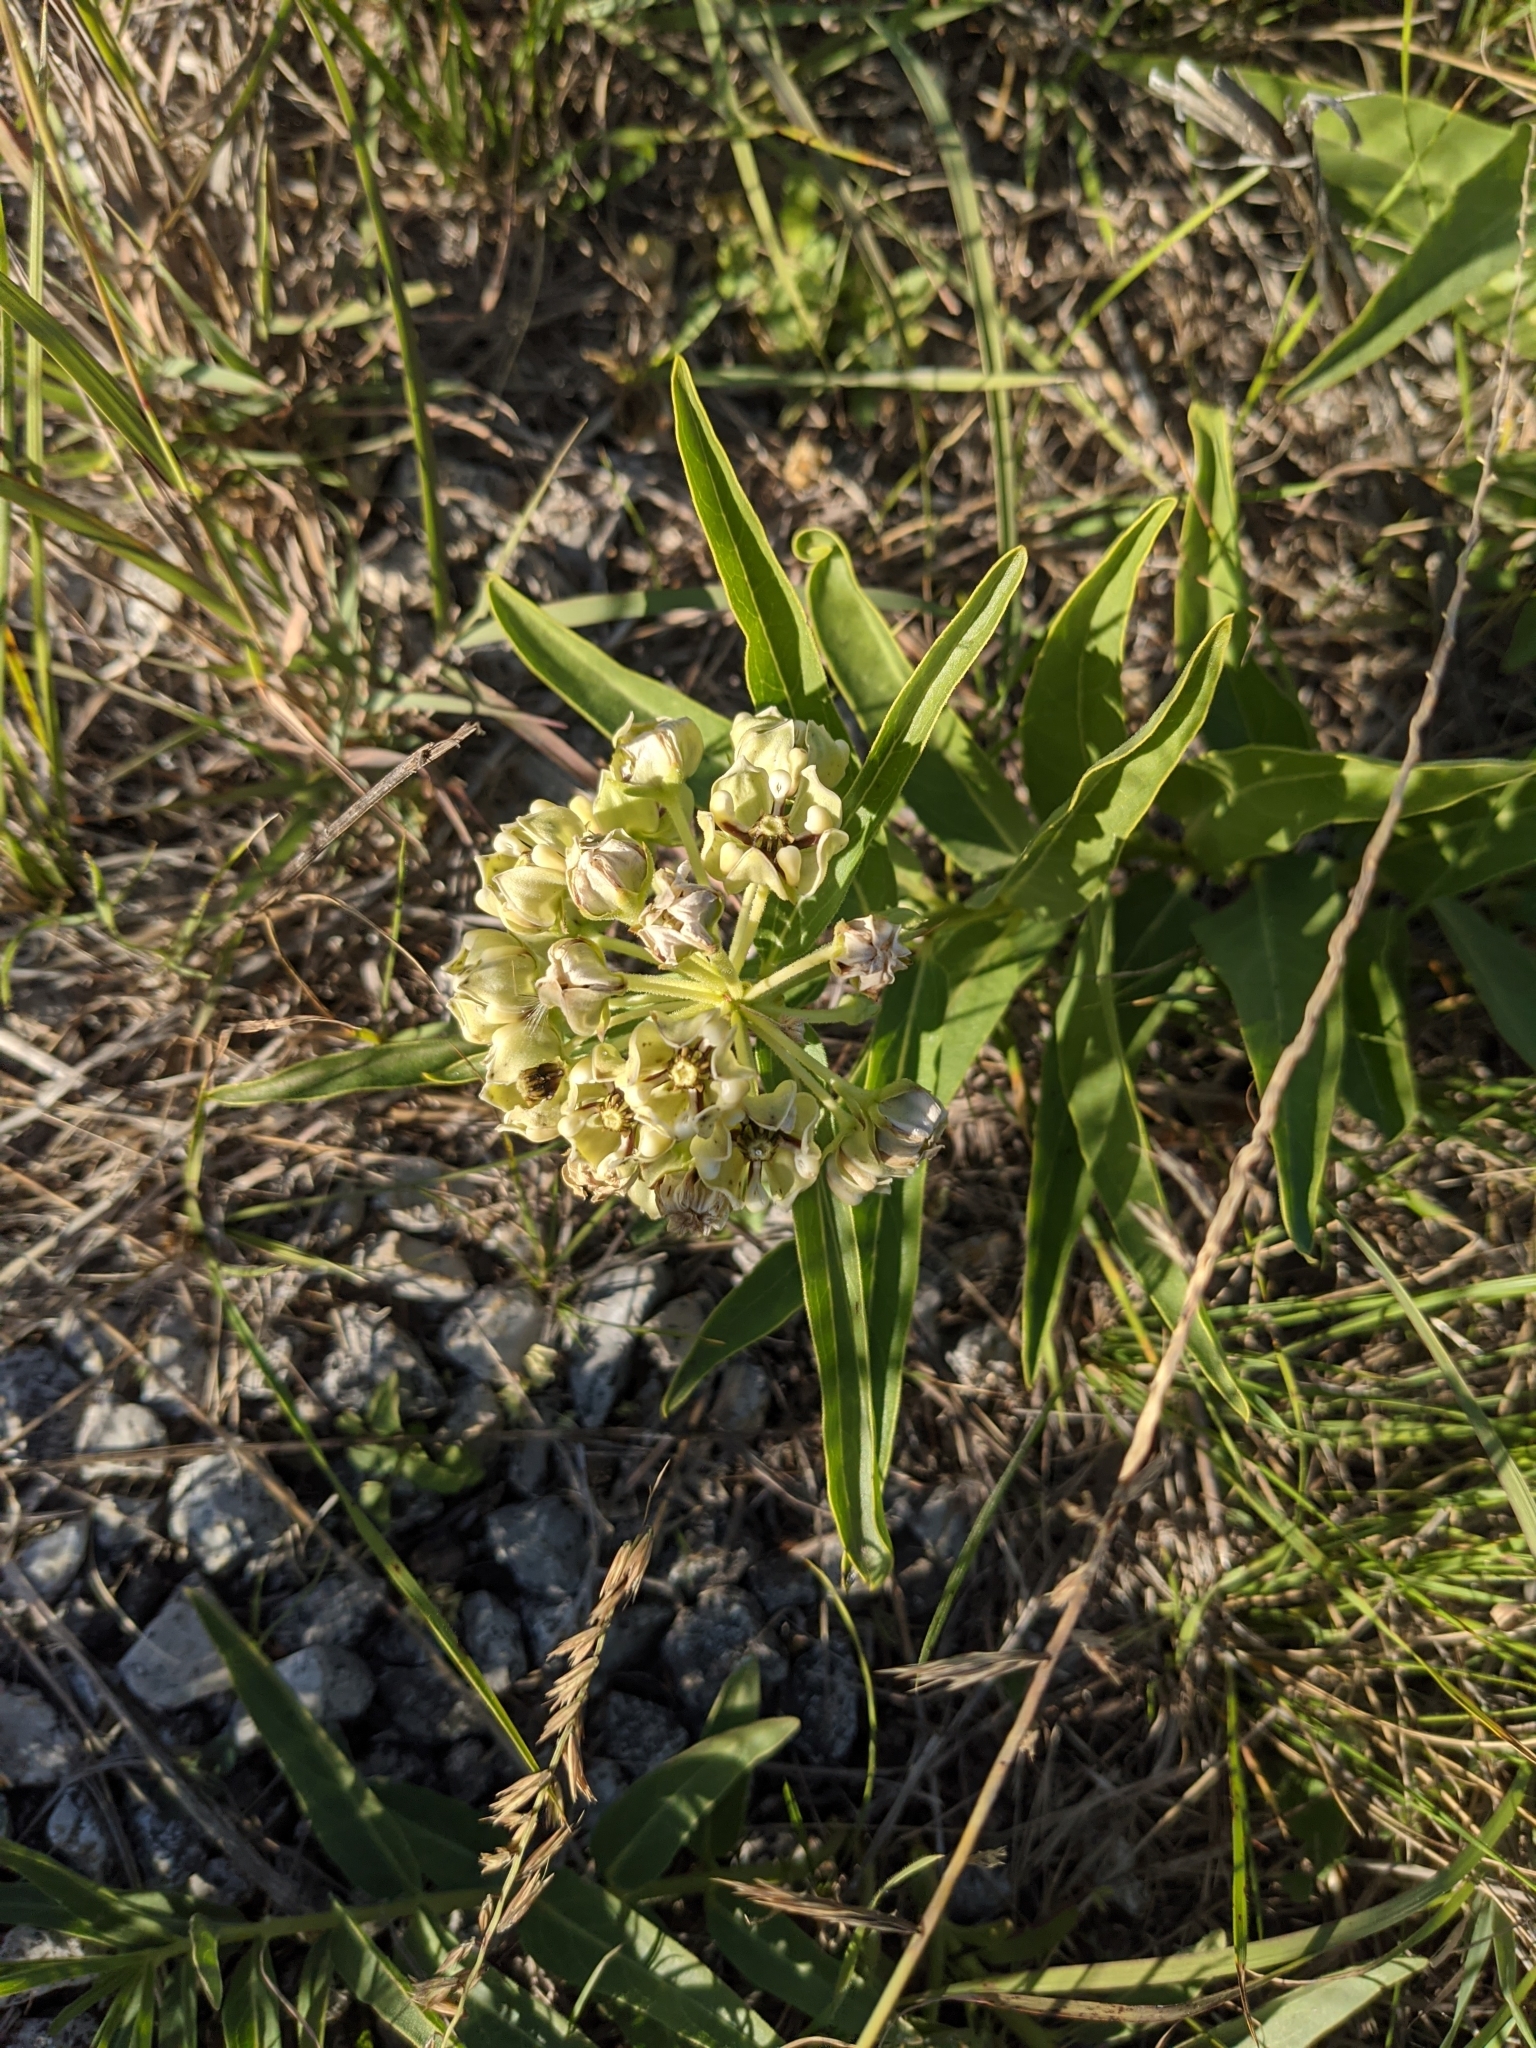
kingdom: Plantae
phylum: Tracheophyta
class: Magnoliopsida
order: Gentianales
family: Apocynaceae
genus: Asclepias
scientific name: Asclepias asperula
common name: Antelope horns
